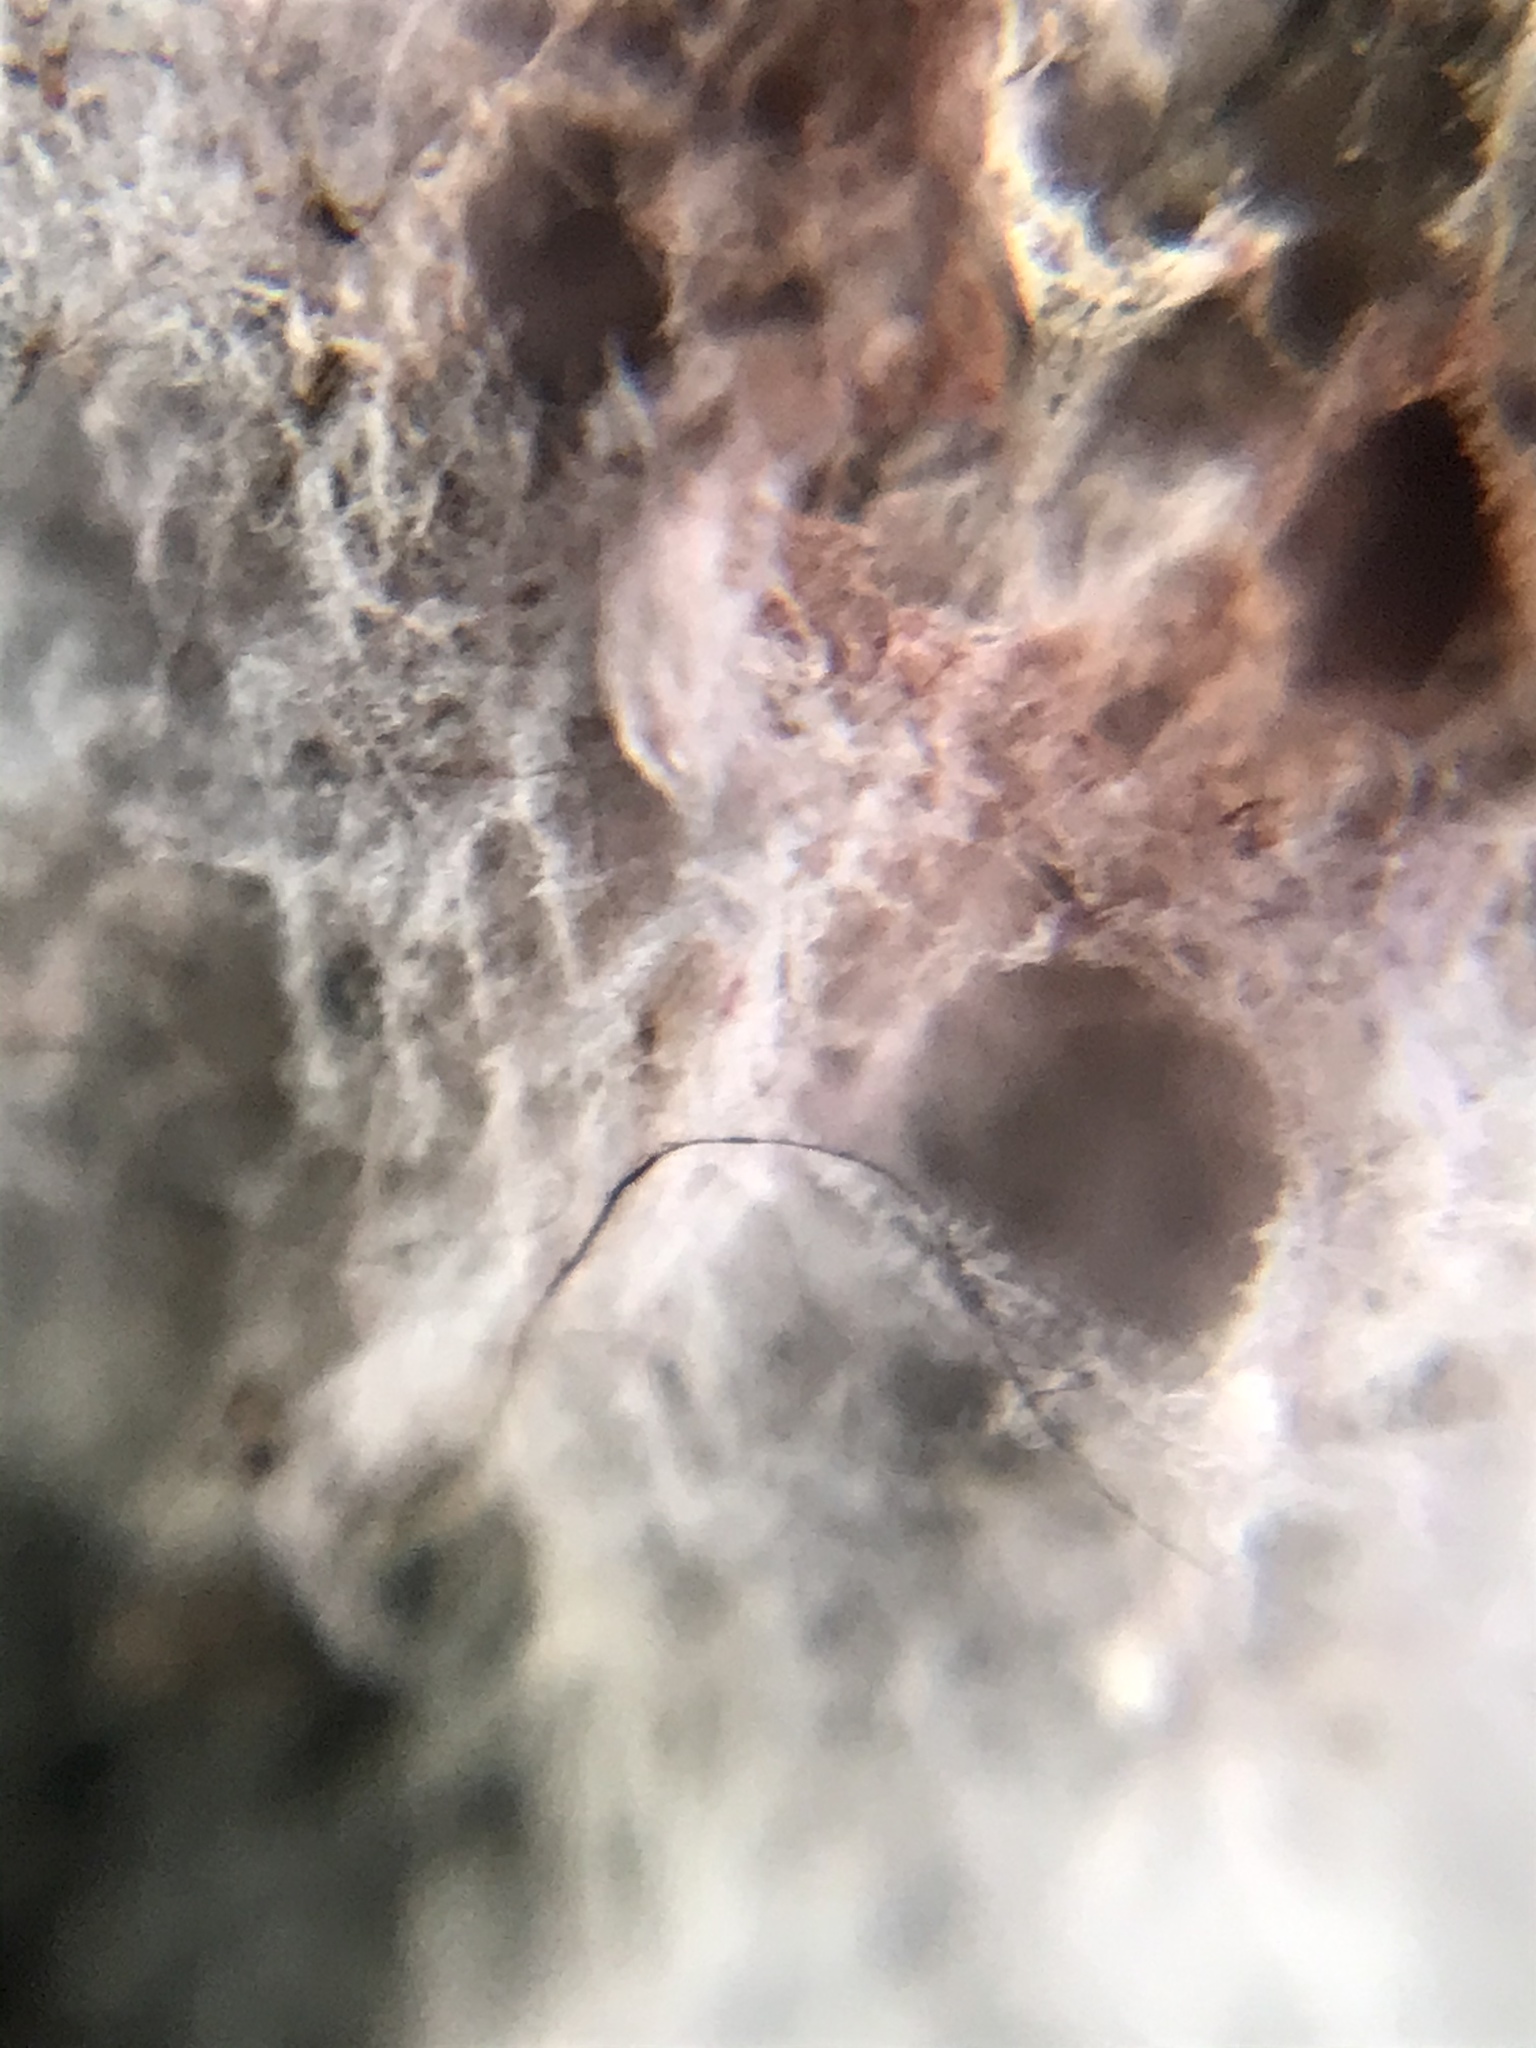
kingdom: Fungi
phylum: Basidiomycota
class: Agaricomycetes
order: Corticiales
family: Punctulariaceae
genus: Punctularia
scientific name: Punctularia atropurpurascens
